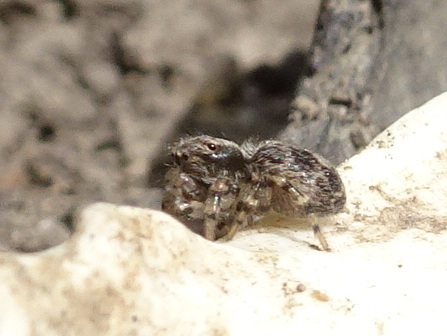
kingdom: Animalia
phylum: Arthropoda
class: Arachnida
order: Araneae
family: Salticidae
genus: Naphrys
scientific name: Naphrys pulex
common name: Flea jumping spider
